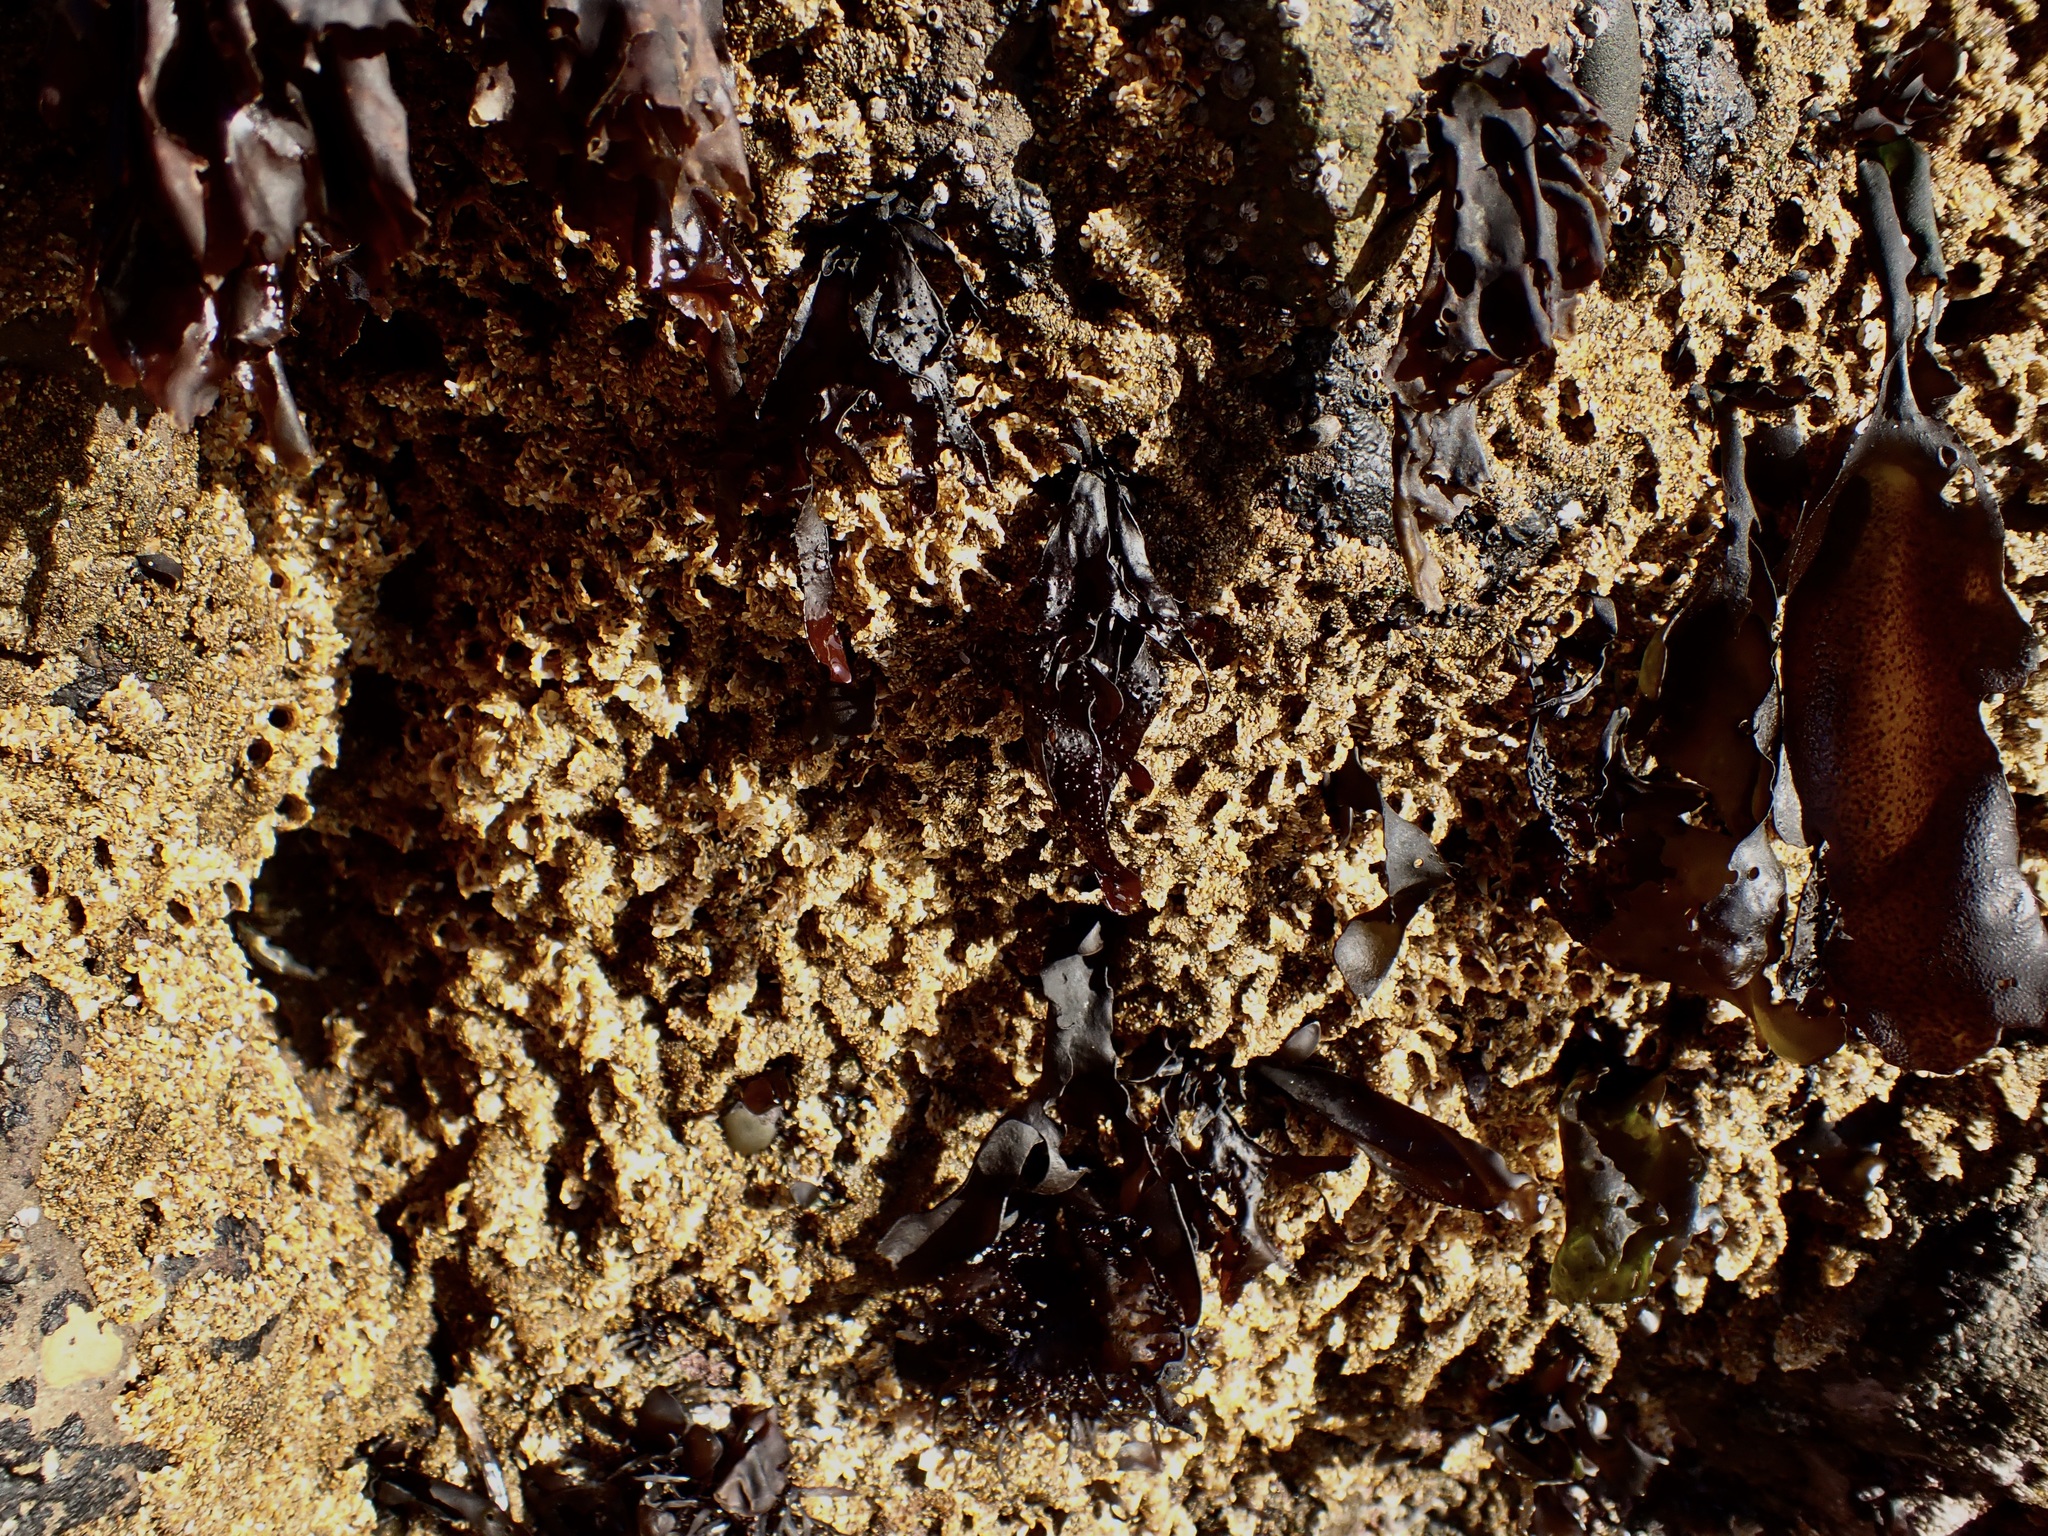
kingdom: Animalia
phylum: Annelida
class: Polychaeta
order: Sabellida
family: Sabellariidae
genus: Phragmatopoma
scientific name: Phragmatopoma californica
